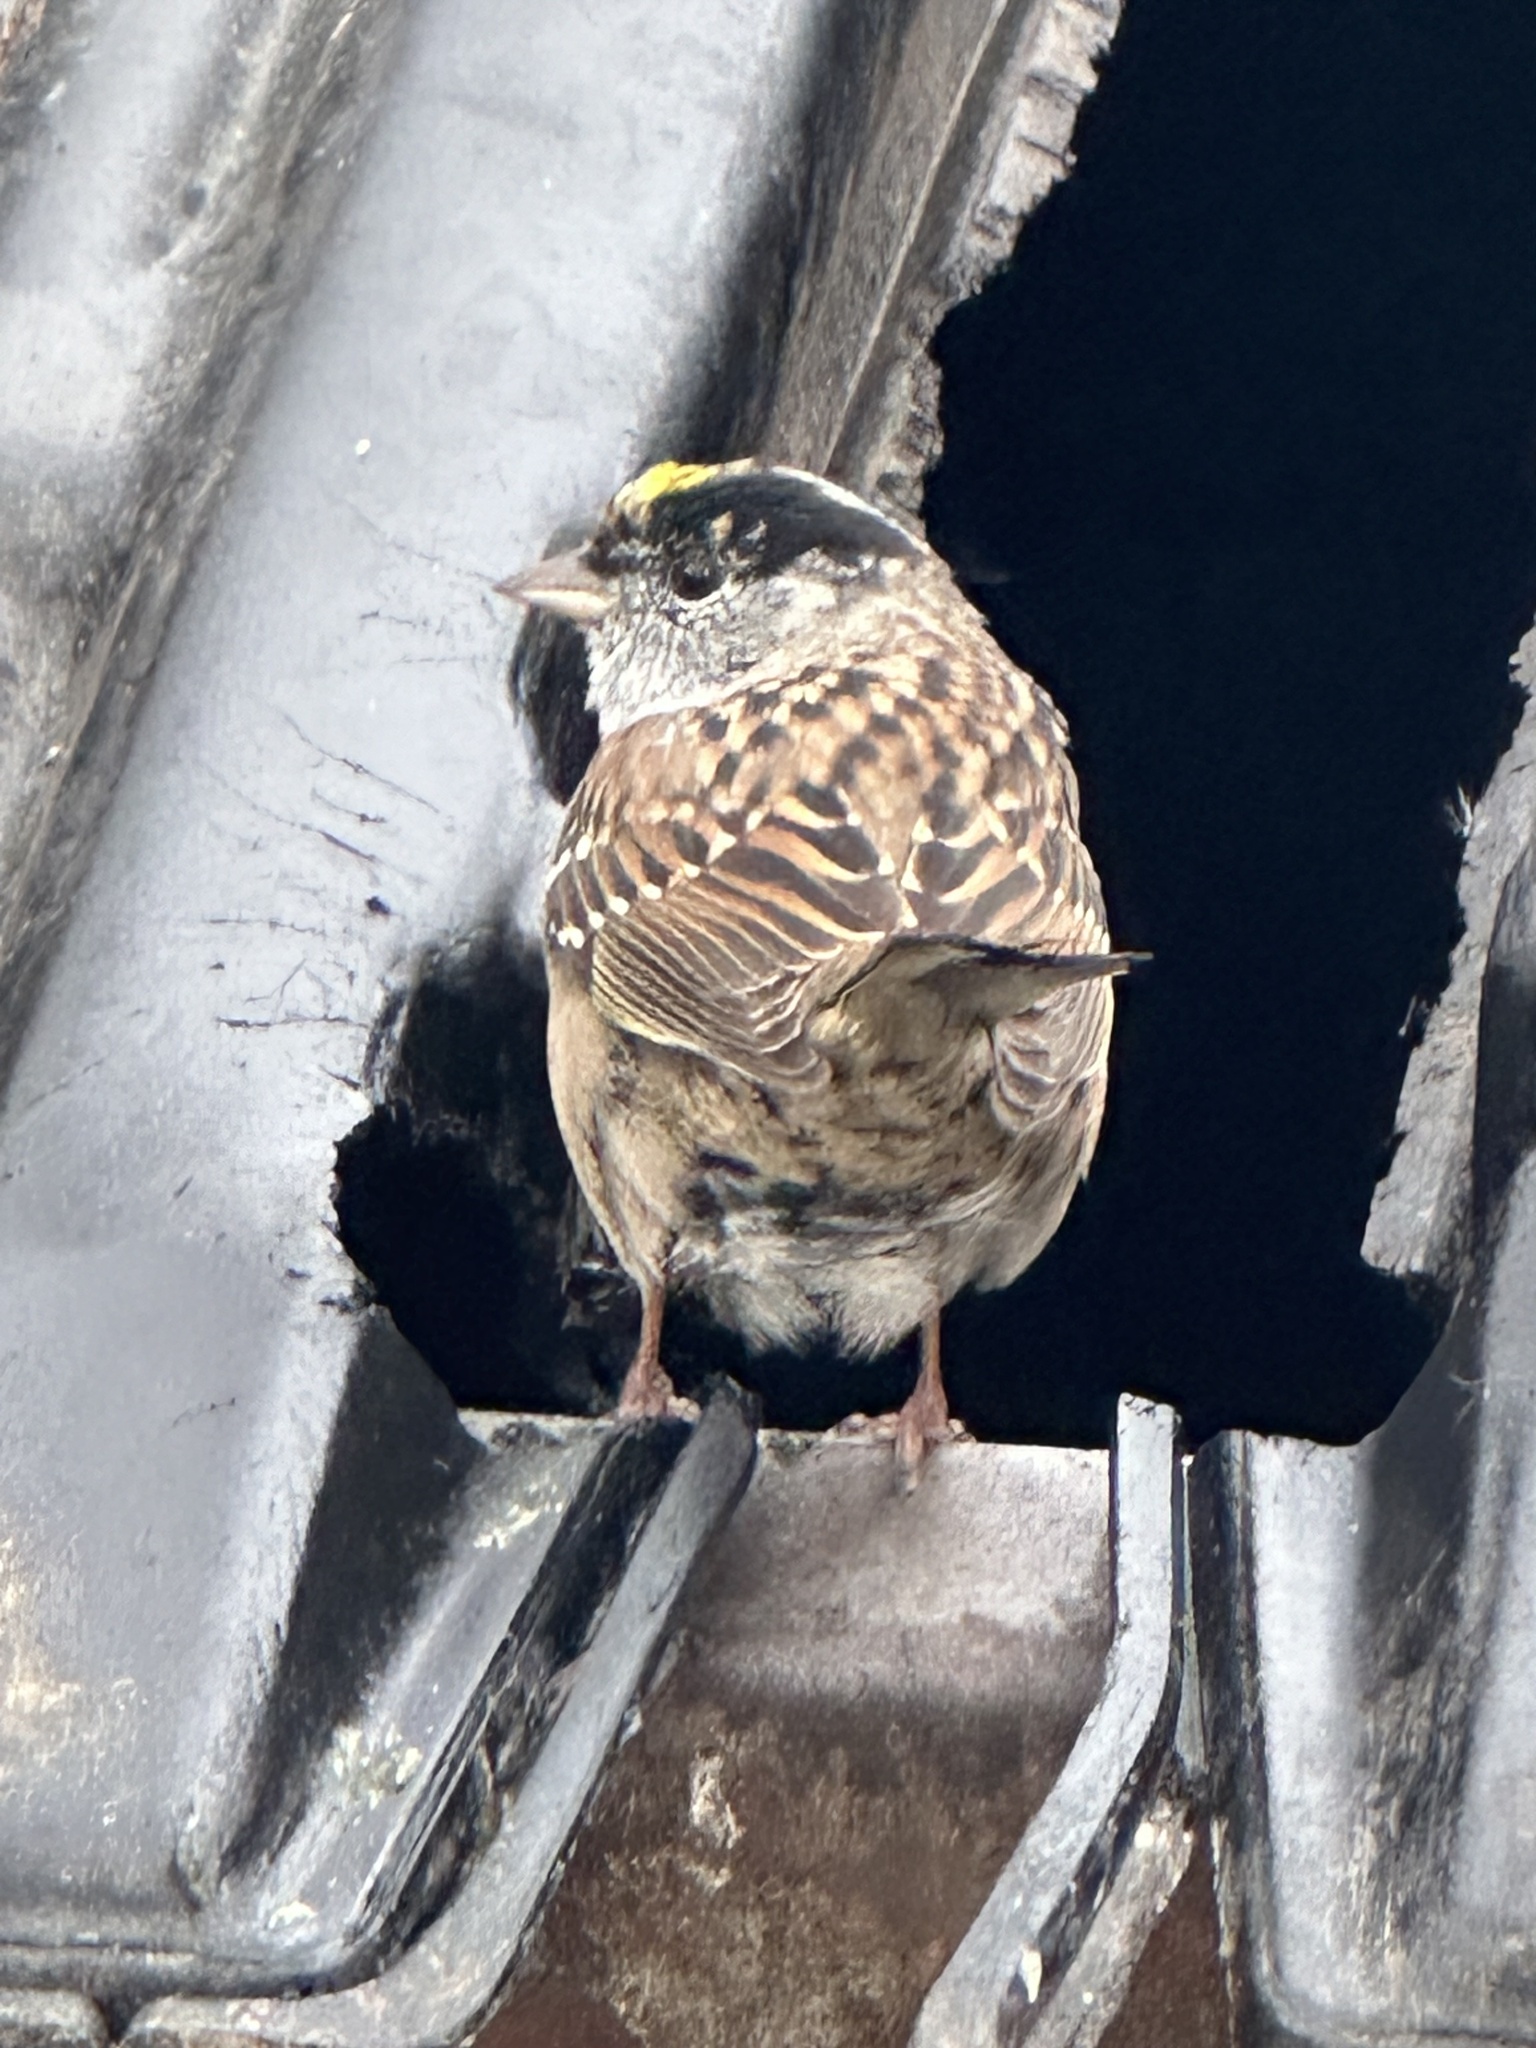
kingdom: Animalia
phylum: Chordata
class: Aves
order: Passeriformes
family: Passerellidae
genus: Zonotrichia
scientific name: Zonotrichia atricapilla
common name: Golden-crowned sparrow
